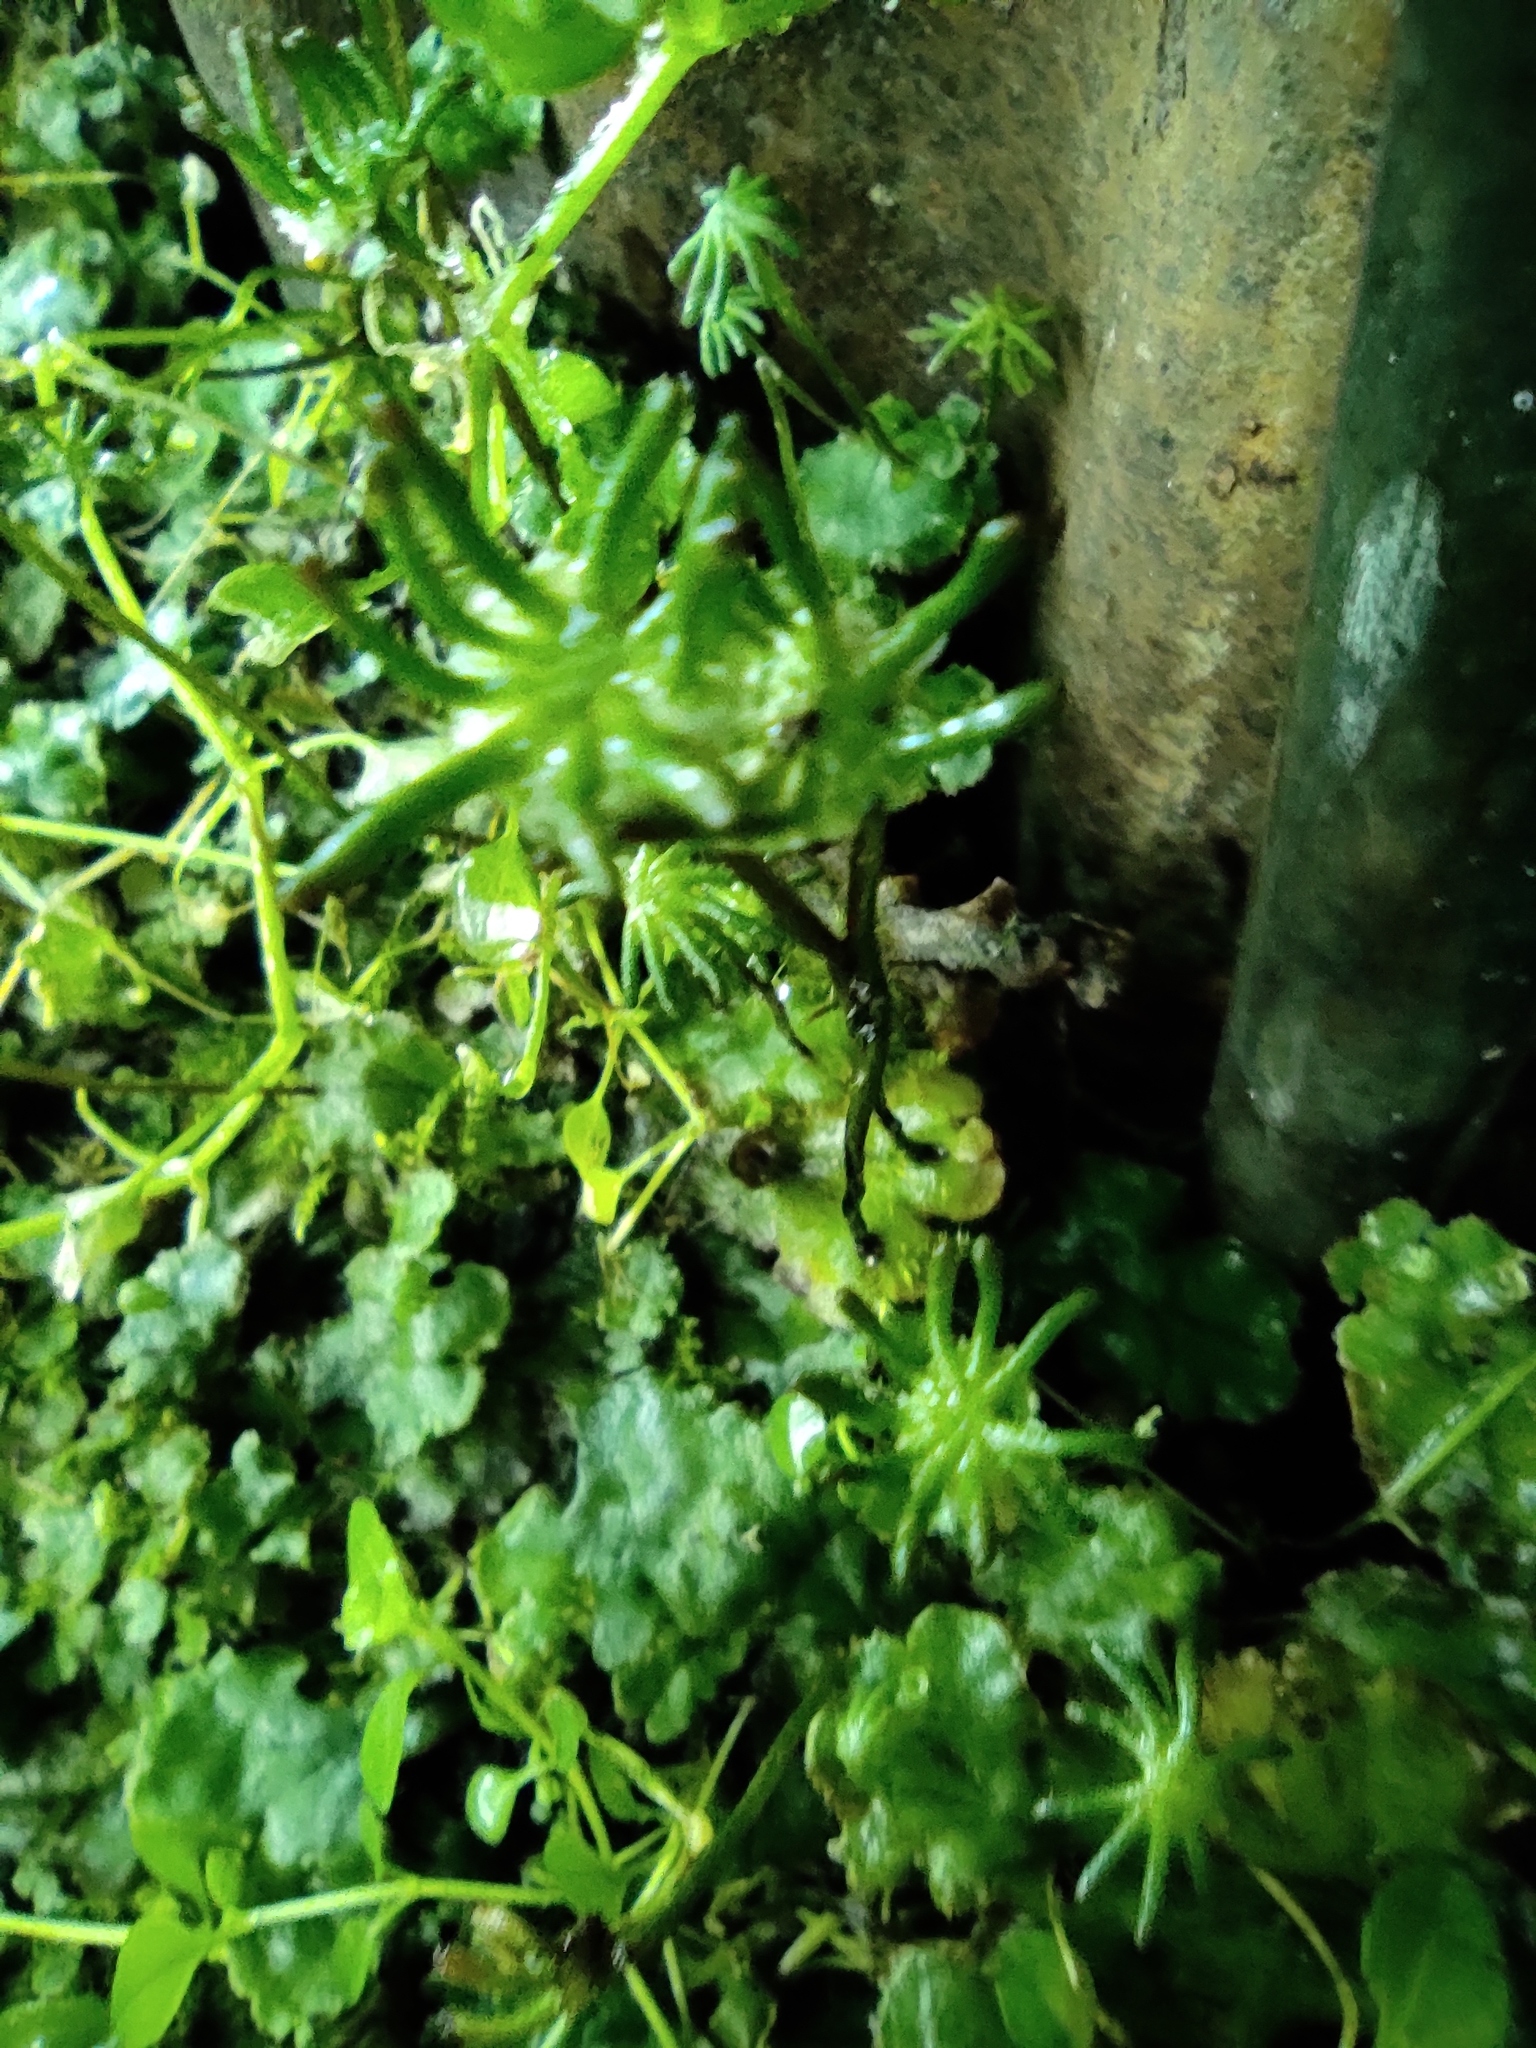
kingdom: Plantae
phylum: Marchantiophyta
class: Marchantiopsida
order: Marchantiales
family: Marchantiaceae
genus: Marchantia
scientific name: Marchantia polymorpha
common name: Common liverwort
